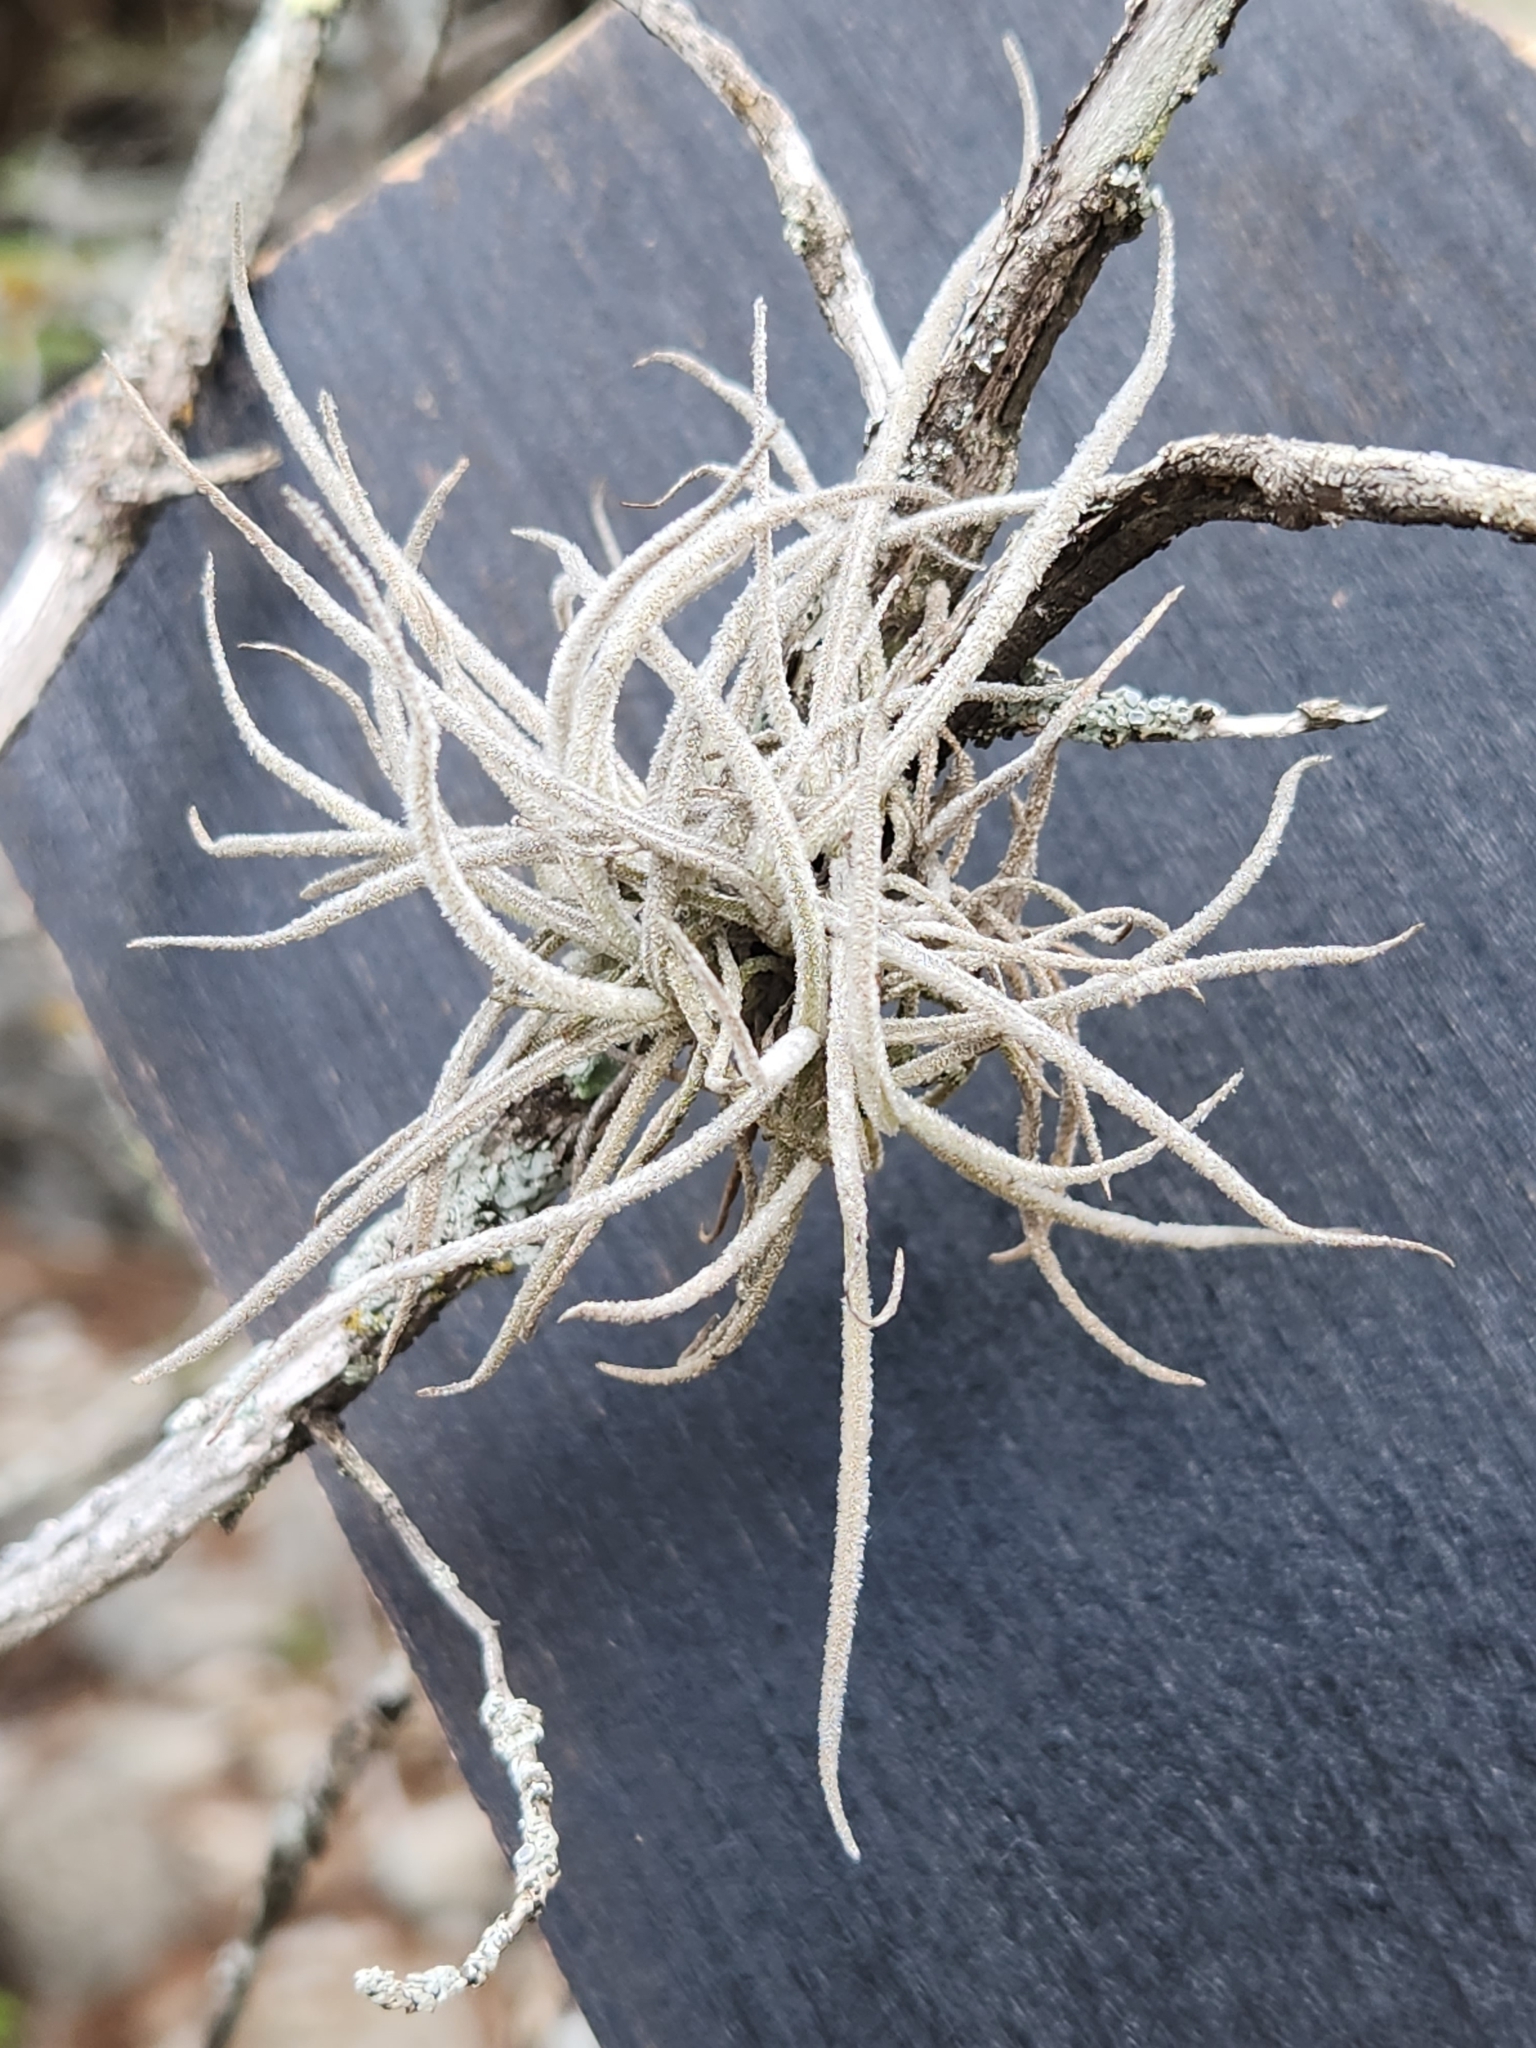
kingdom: Plantae
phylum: Tracheophyta
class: Liliopsida
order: Poales
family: Bromeliaceae
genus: Tillandsia
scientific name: Tillandsia recurvata
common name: Small ballmoss
